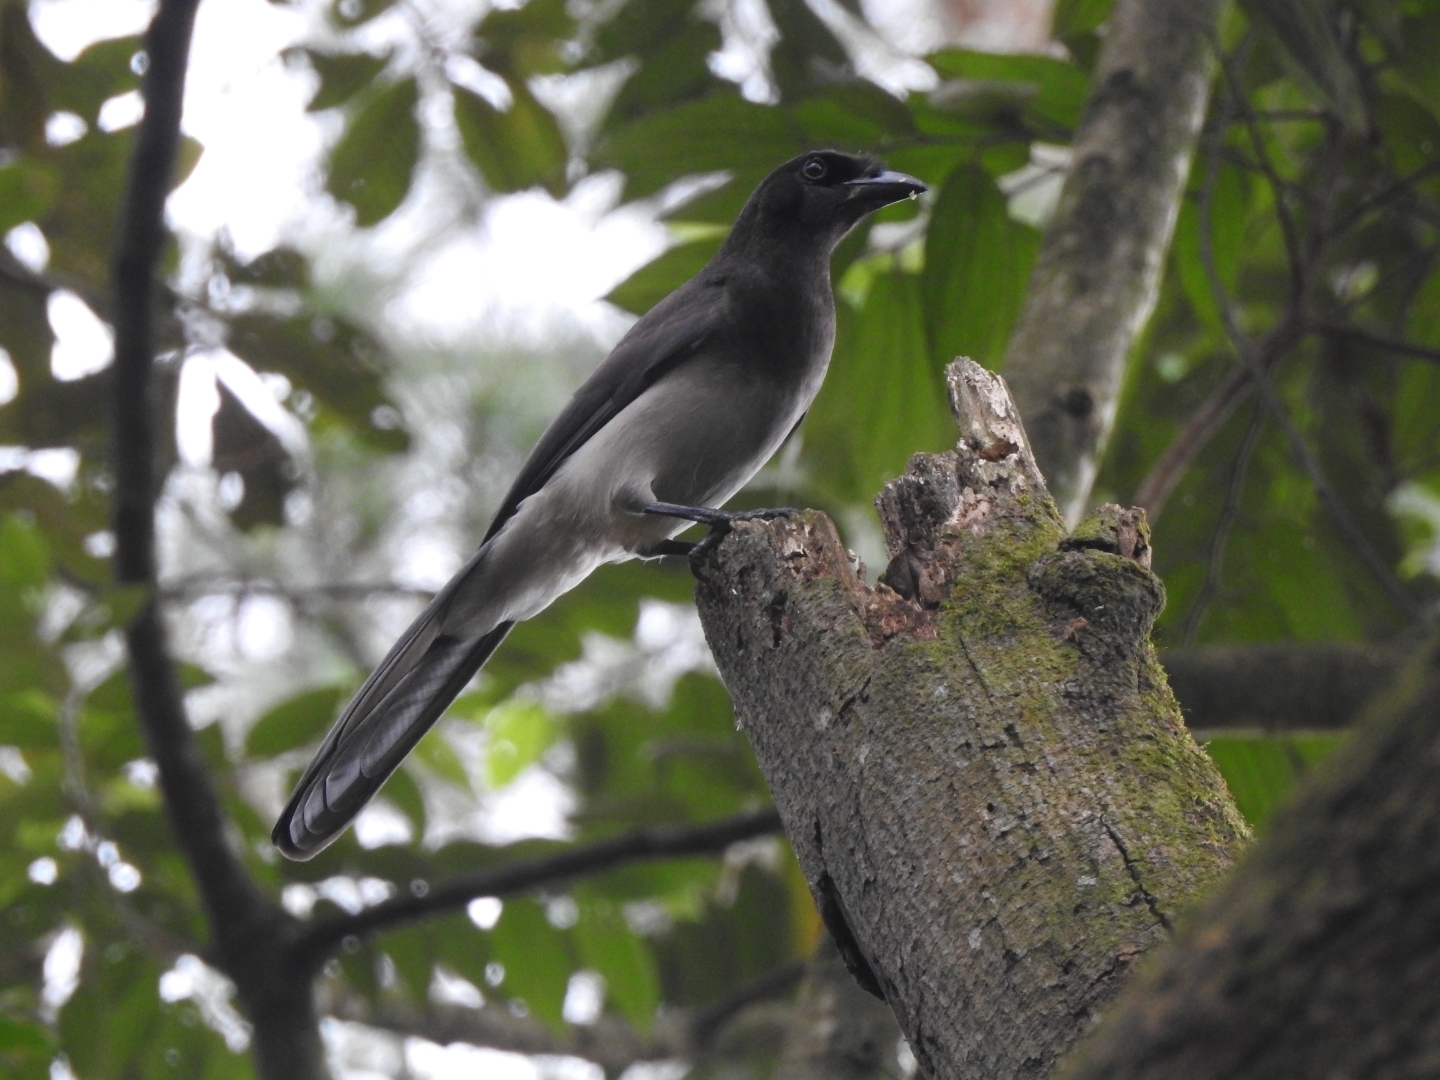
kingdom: Animalia
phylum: Chordata
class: Aves
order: Passeriformes
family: Corvidae
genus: Psilorhinus
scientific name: Psilorhinus morio
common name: Brown jay
